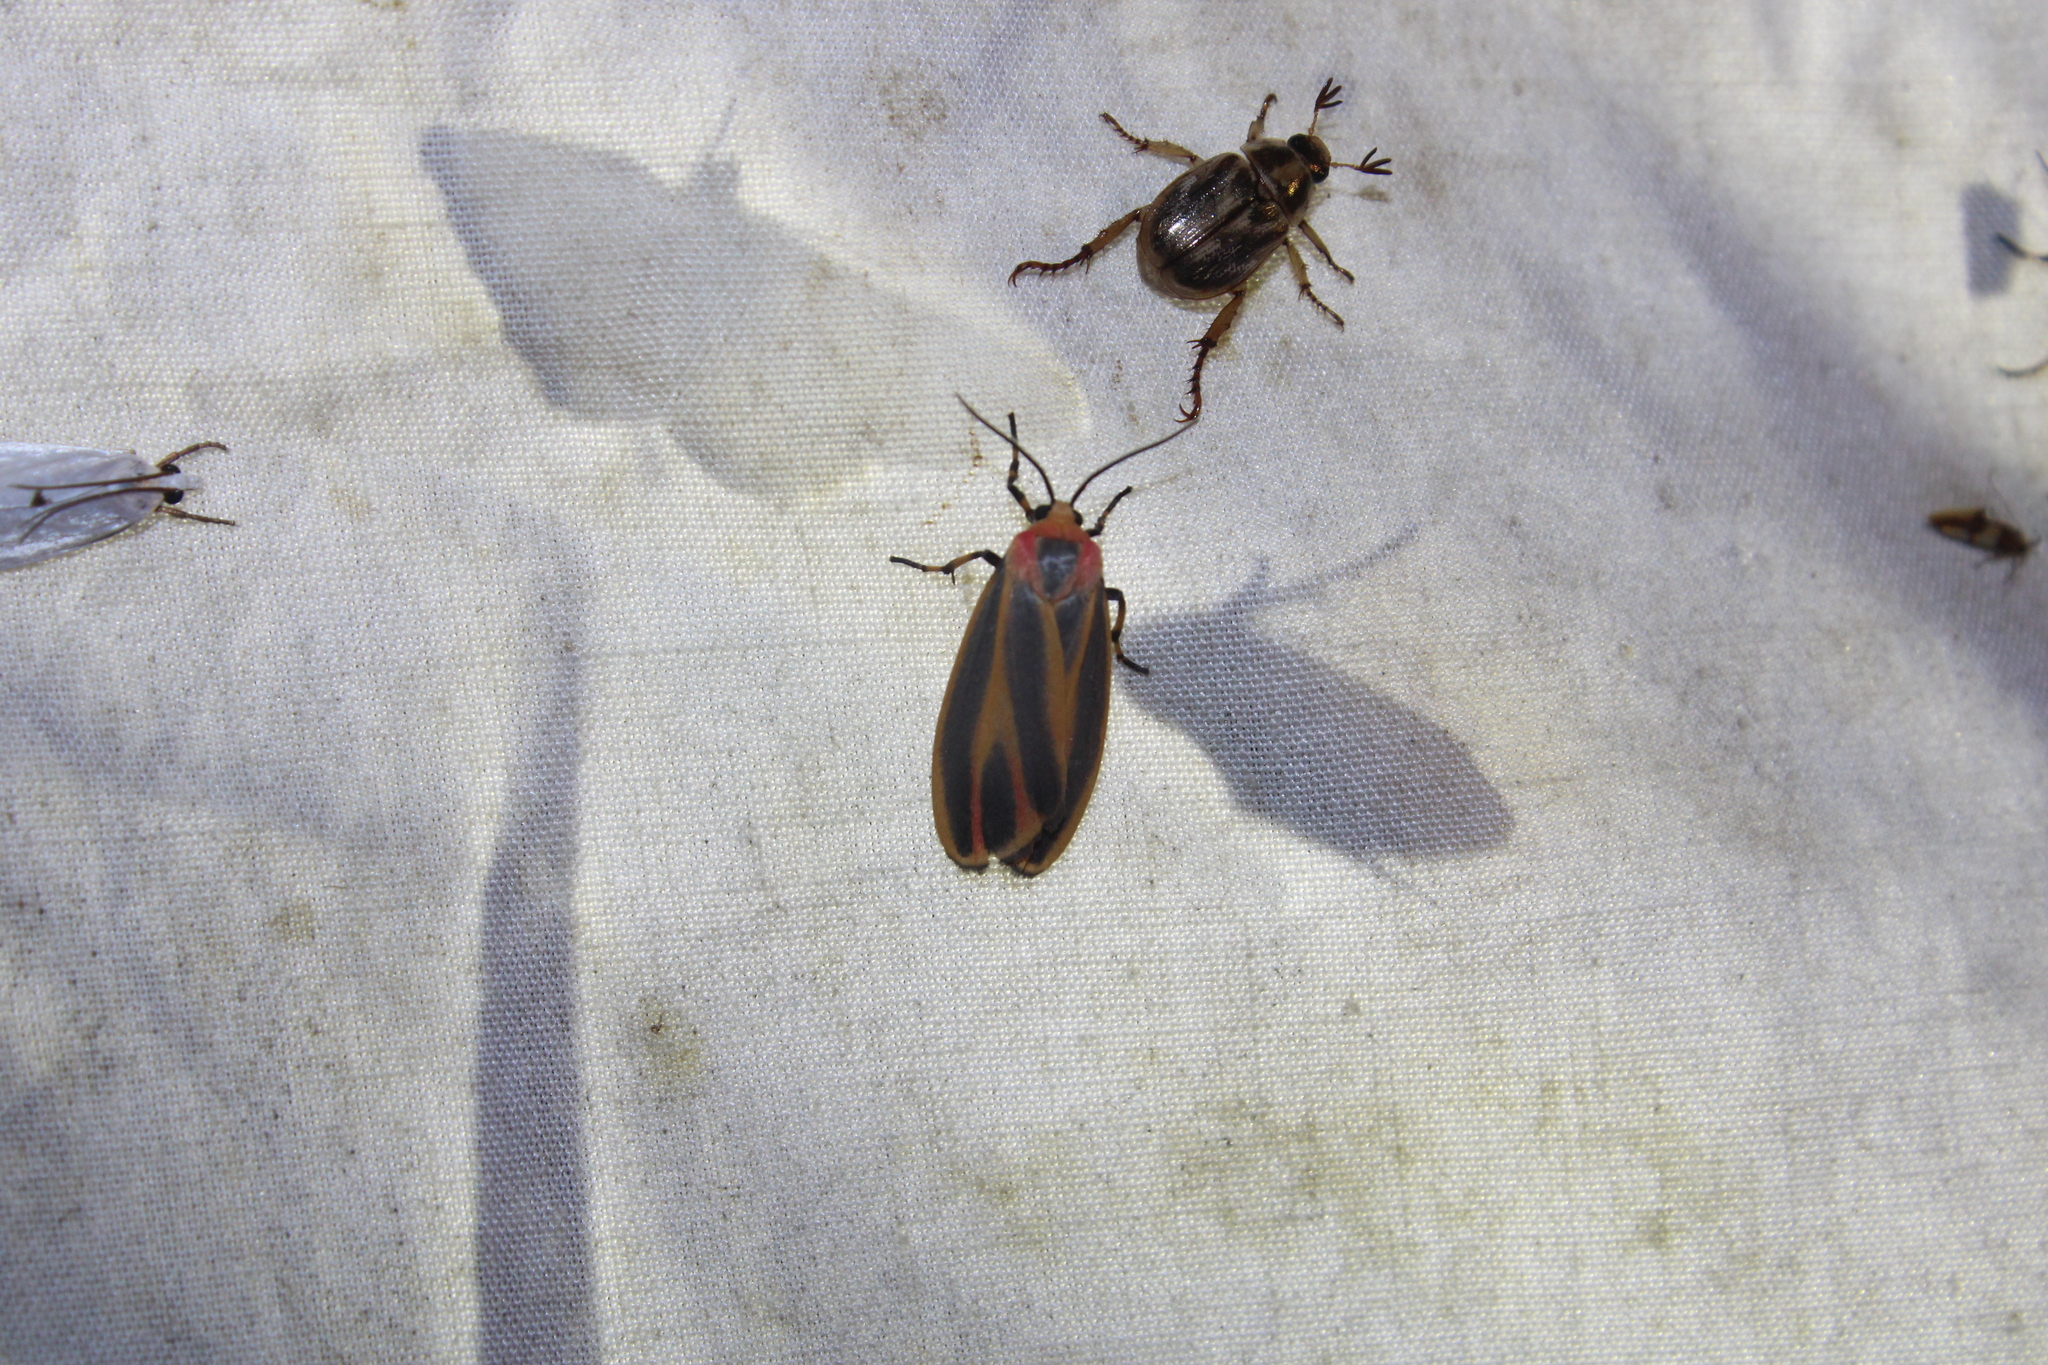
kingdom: Animalia
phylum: Arthropoda
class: Insecta
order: Lepidoptera
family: Erebidae
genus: Hypoprepia
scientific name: Hypoprepia fucosa
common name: Painted lichen moth
